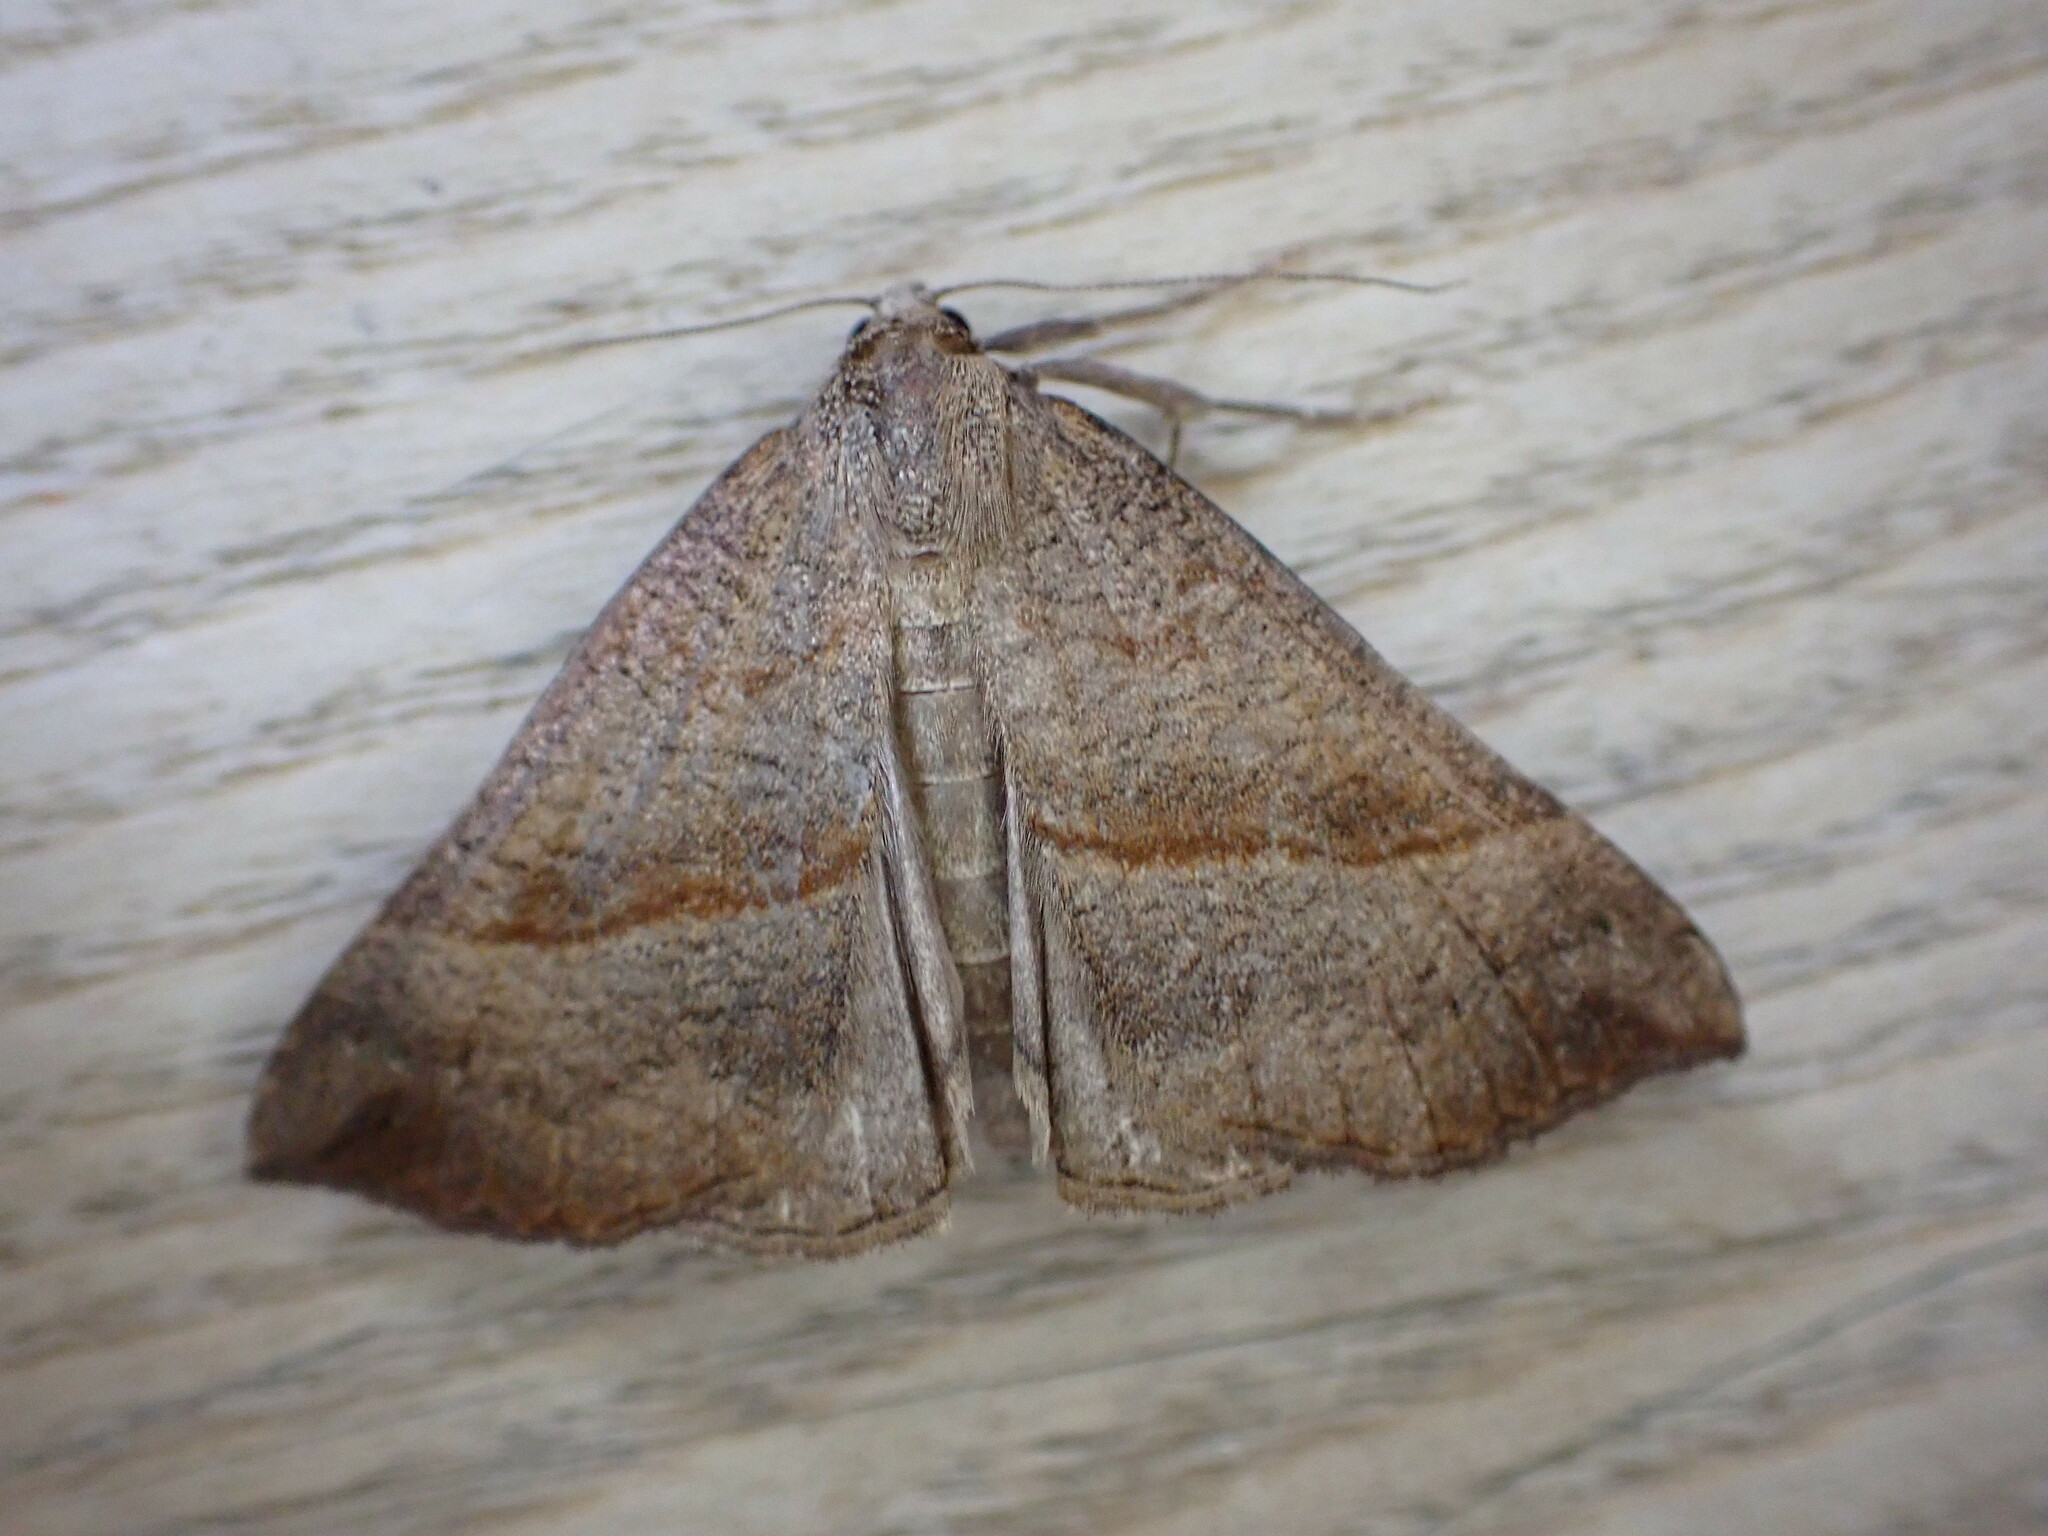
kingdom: Animalia
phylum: Arthropoda
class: Insecta
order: Lepidoptera
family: Erebidae
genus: Hypena
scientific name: Hypena proboscidalis
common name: Snout
